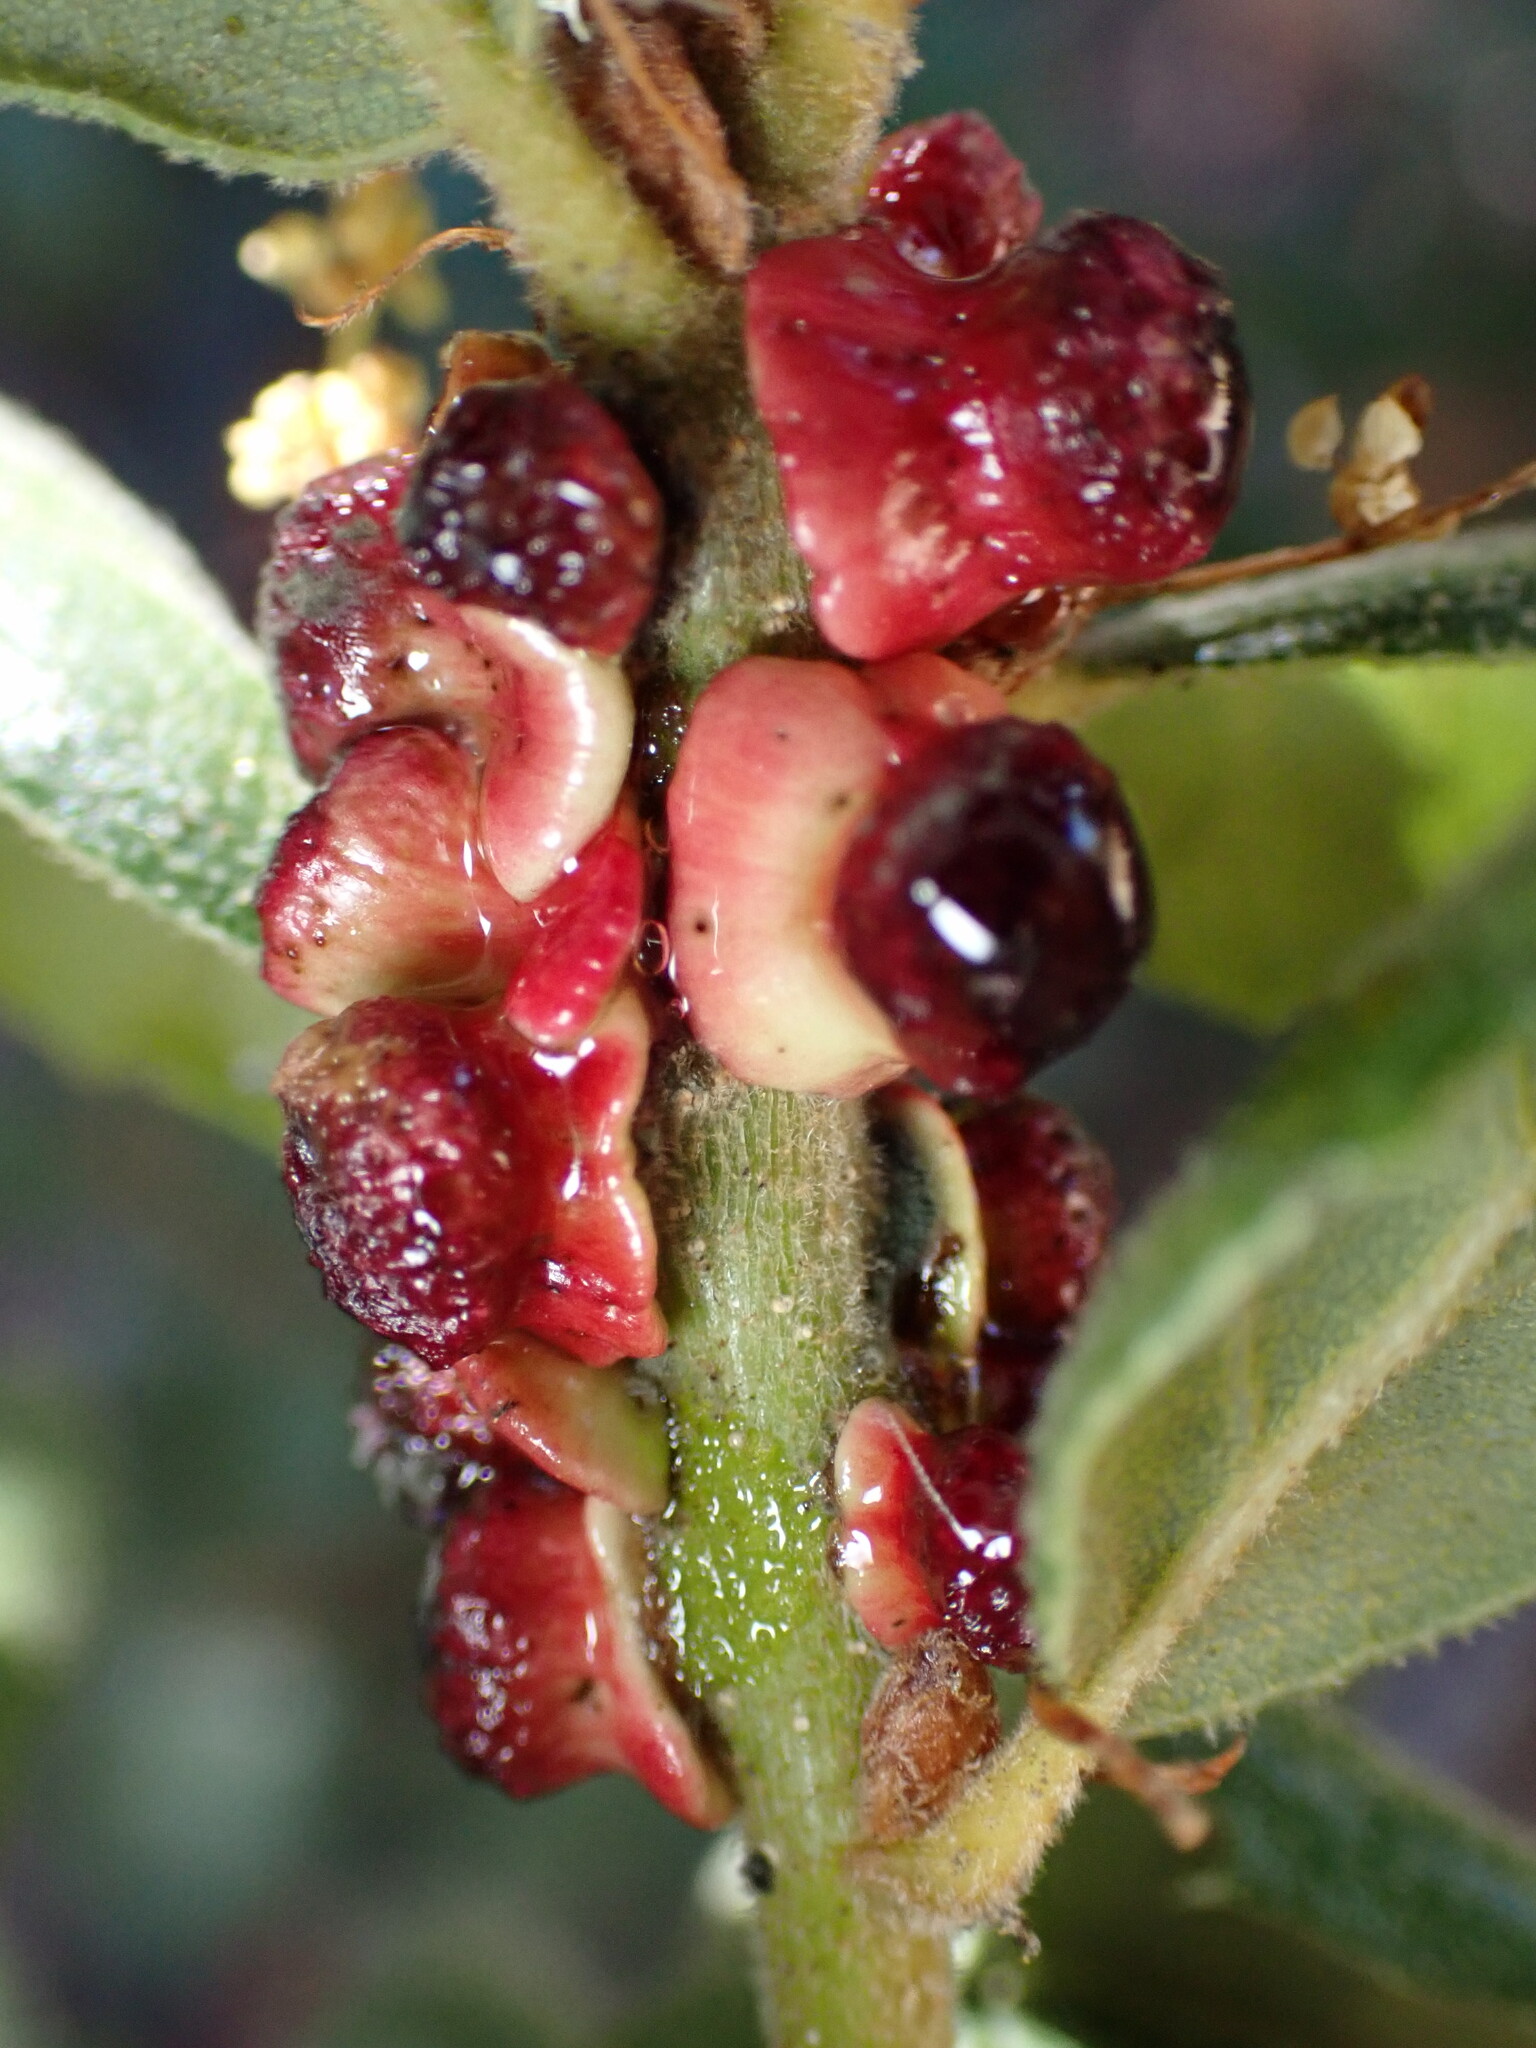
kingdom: Animalia
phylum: Arthropoda
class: Insecta
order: Hymenoptera
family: Cynipidae
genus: Disholcaspis
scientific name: Disholcaspis prehensa
